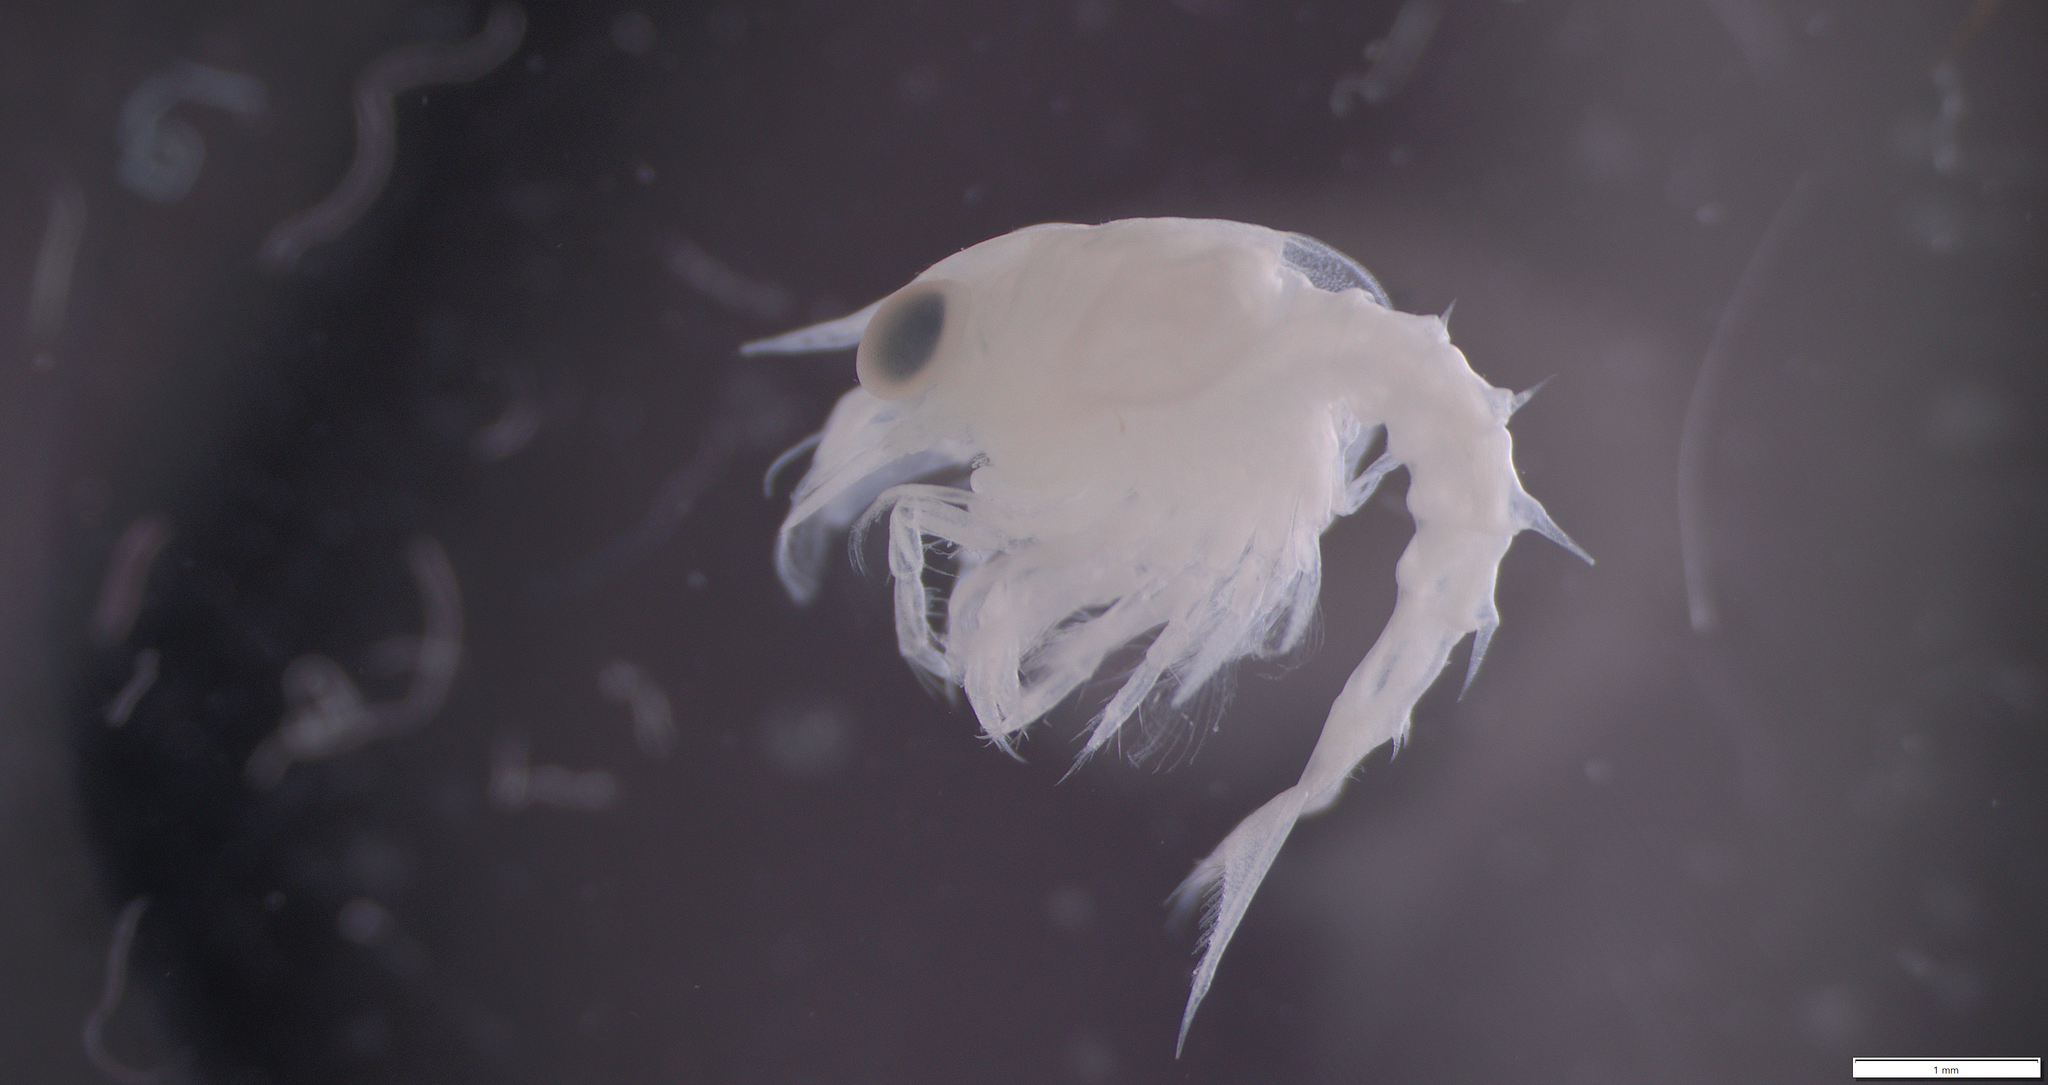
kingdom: Animalia
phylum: Arthropoda
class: Malacostraca
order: Decapoda
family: Nephropidae
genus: Homarus
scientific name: Homarus americanus
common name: American lobster
